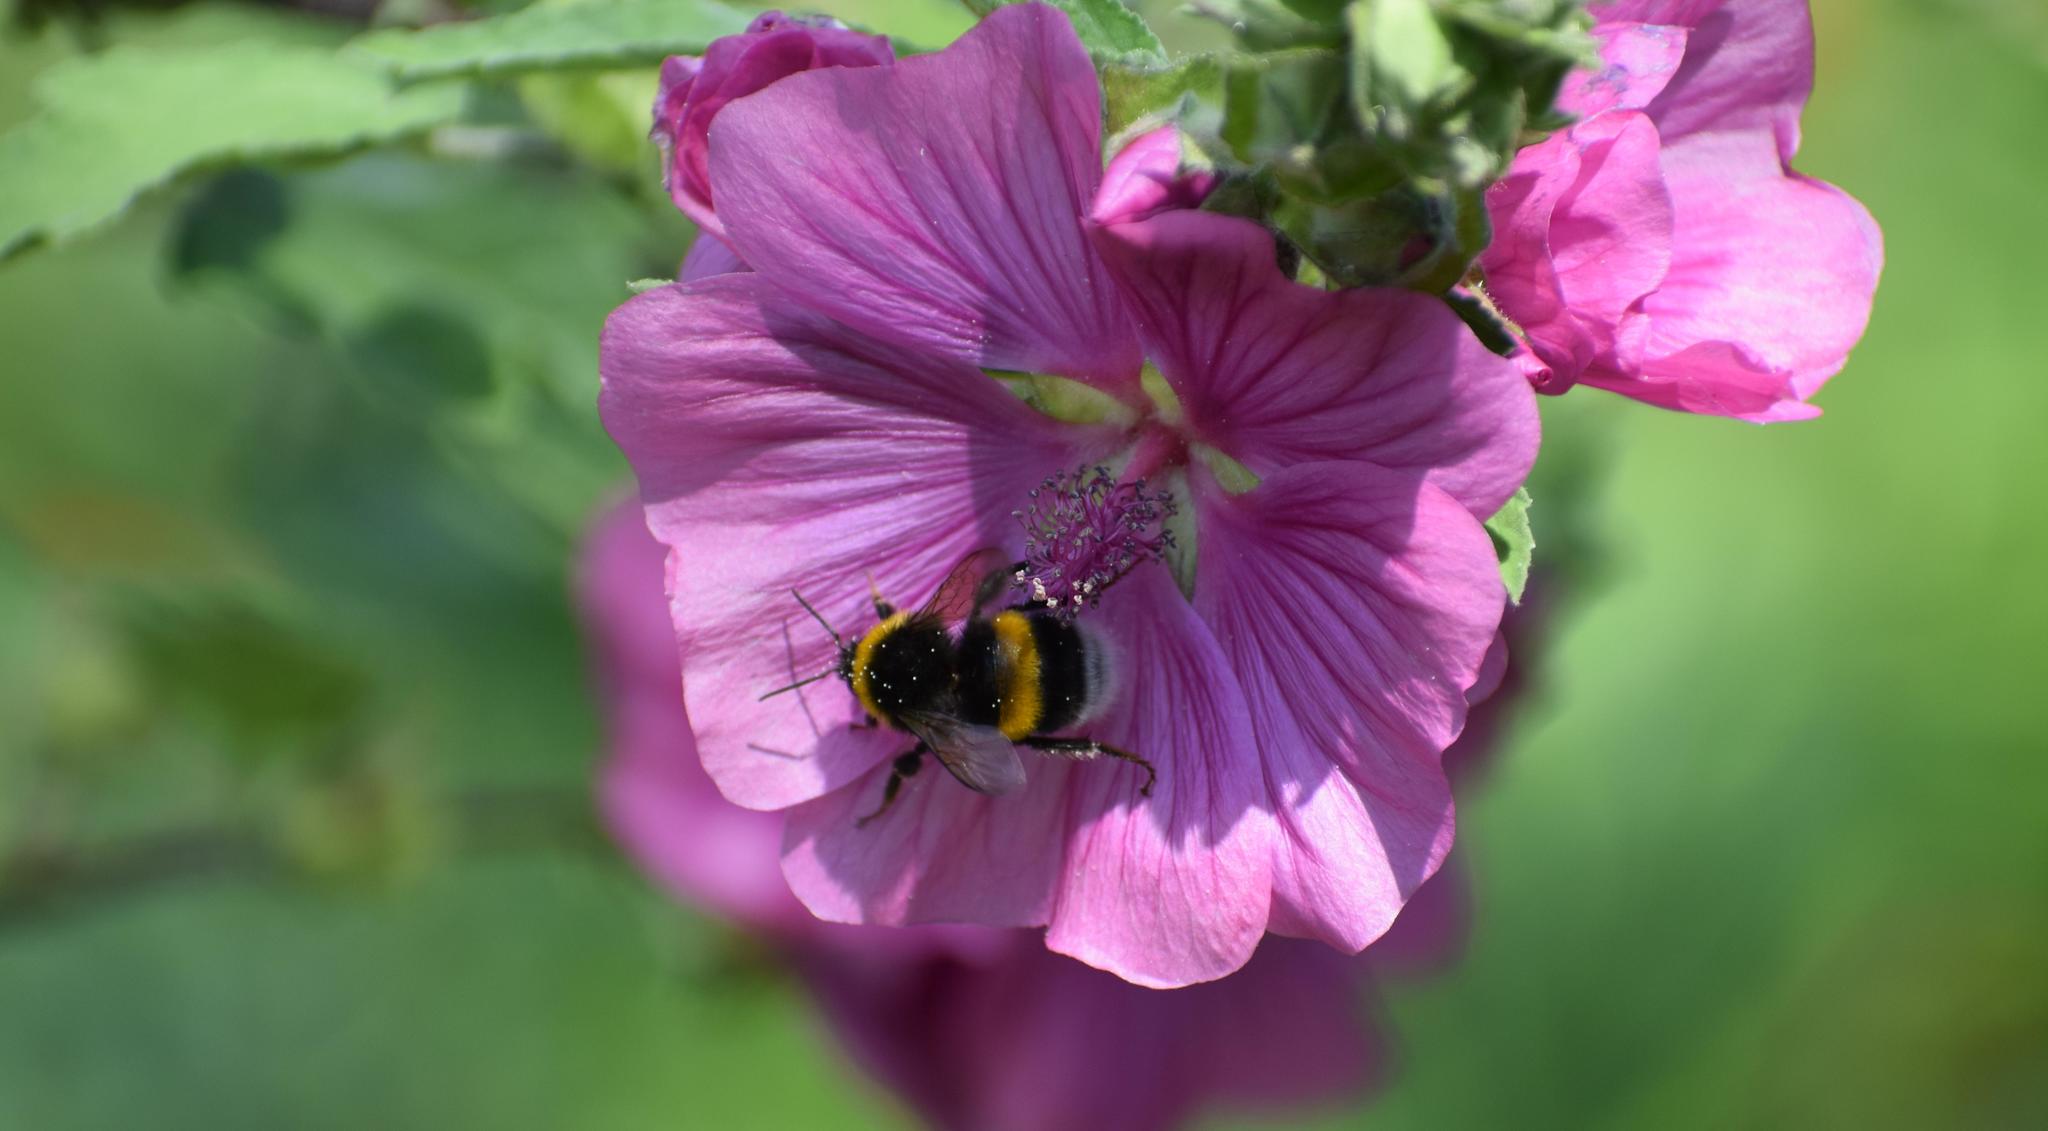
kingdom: Animalia
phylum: Arthropoda
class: Insecta
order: Hymenoptera
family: Apidae
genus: Bombus
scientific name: Bombus terrestris
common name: Buff-tailed bumblebee
